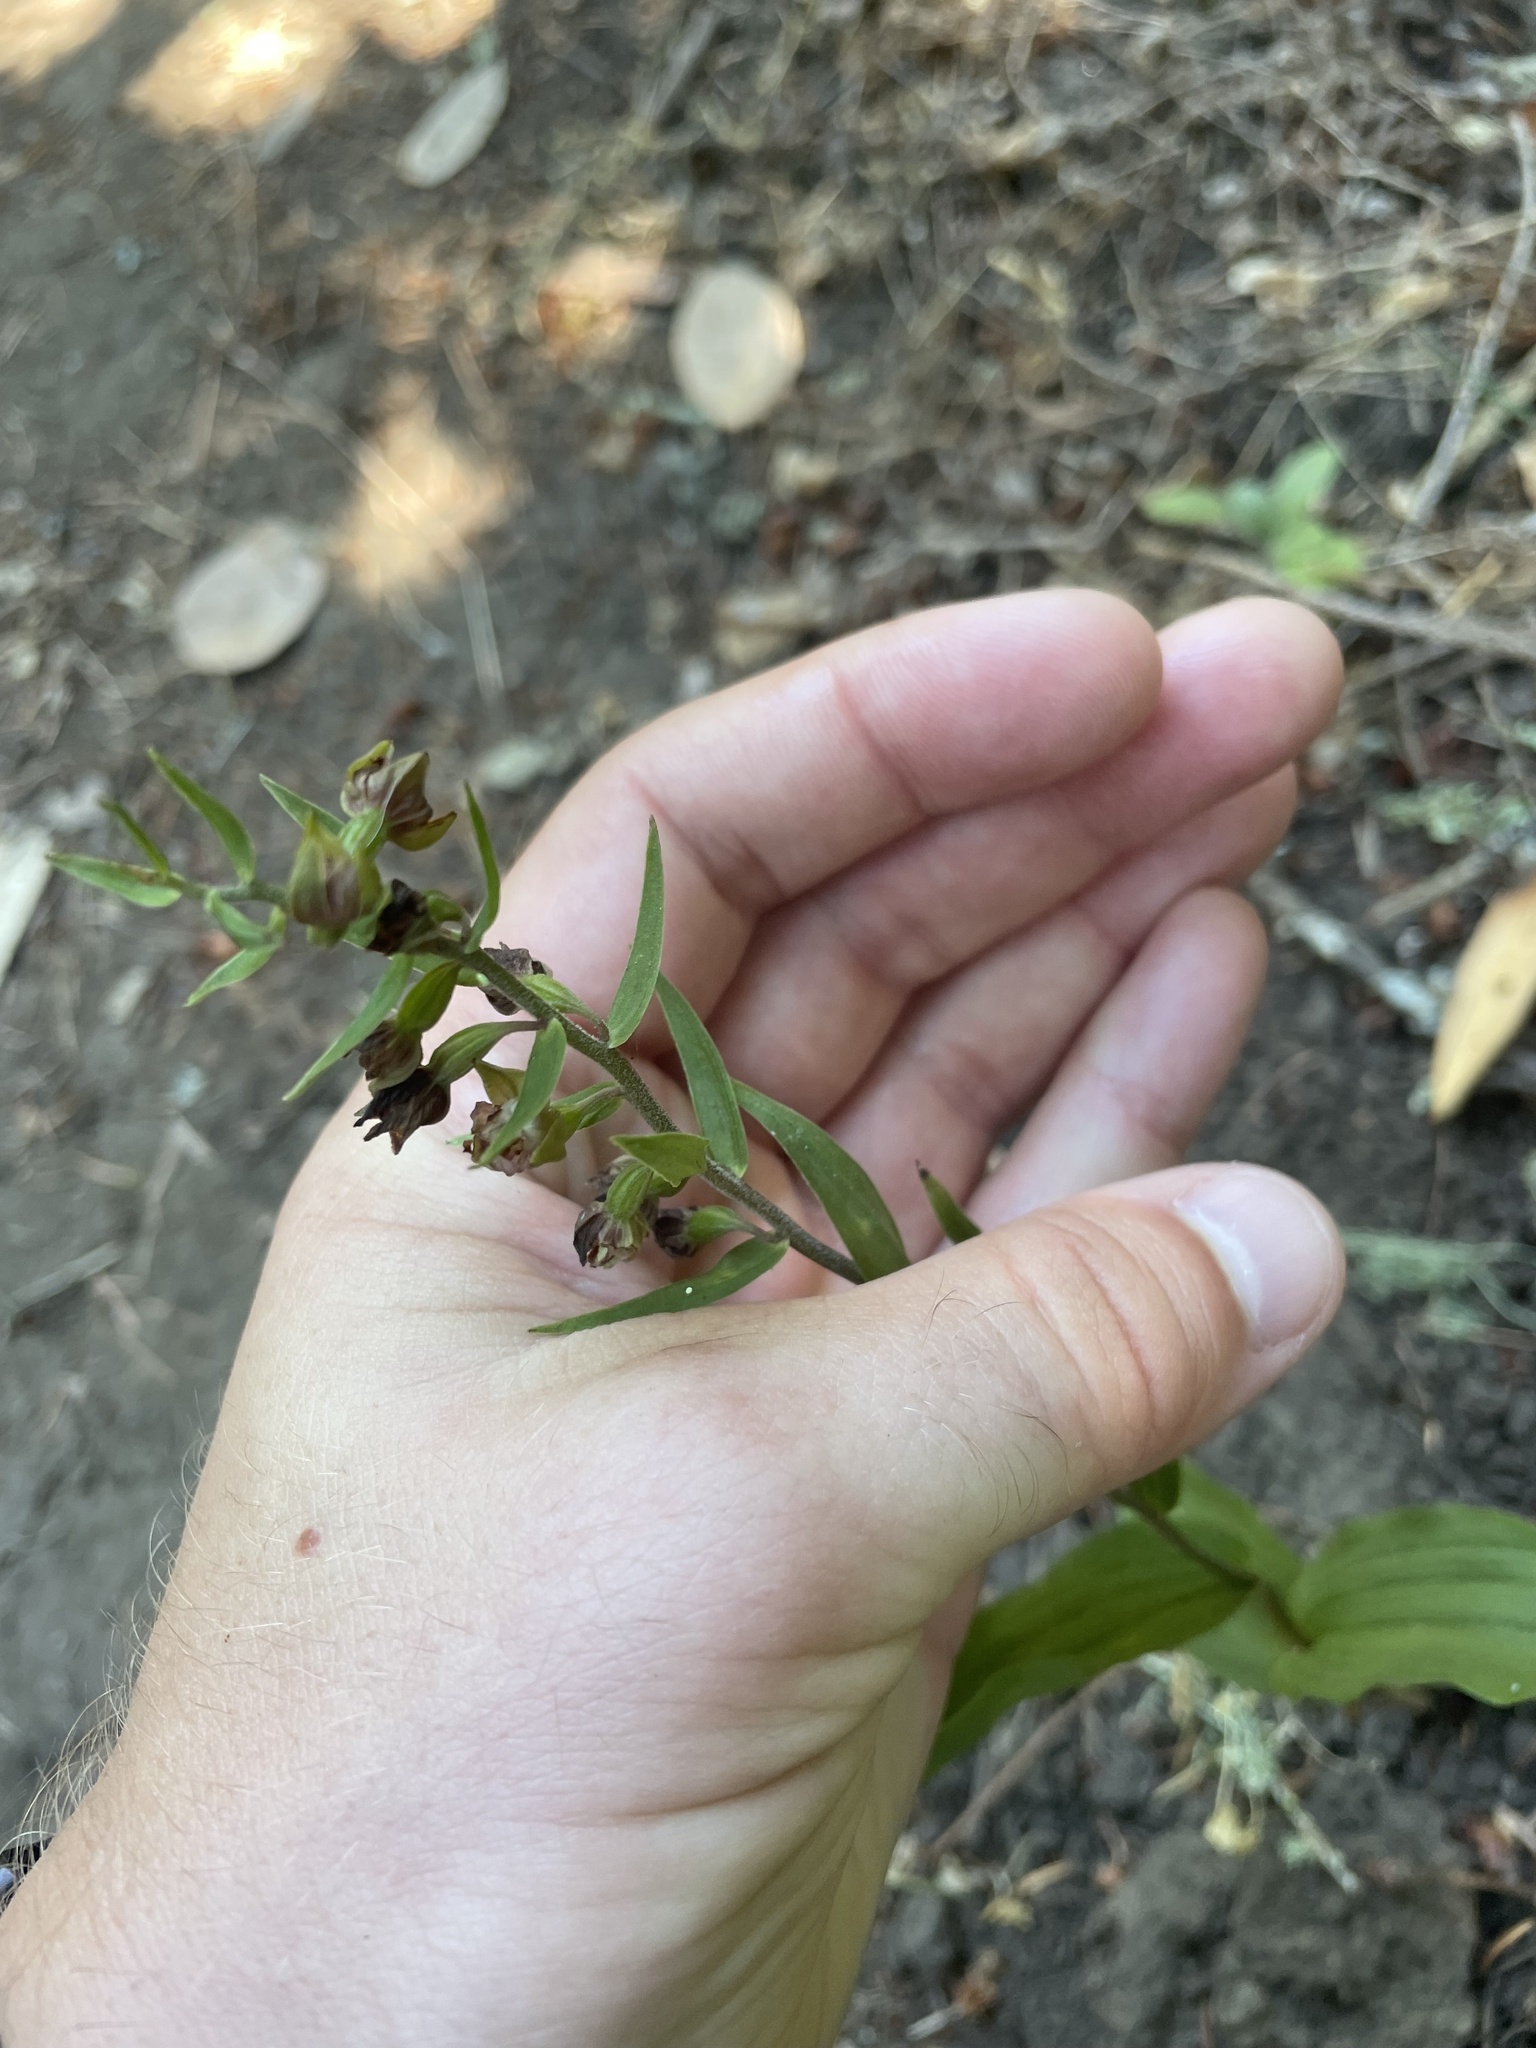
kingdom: Plantae
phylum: Tracheophyta
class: Liliopsida
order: Asparagales
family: Orchidaceae
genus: Epipactis
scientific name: Epipactis helleborine
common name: Broad-leaved helleborine
